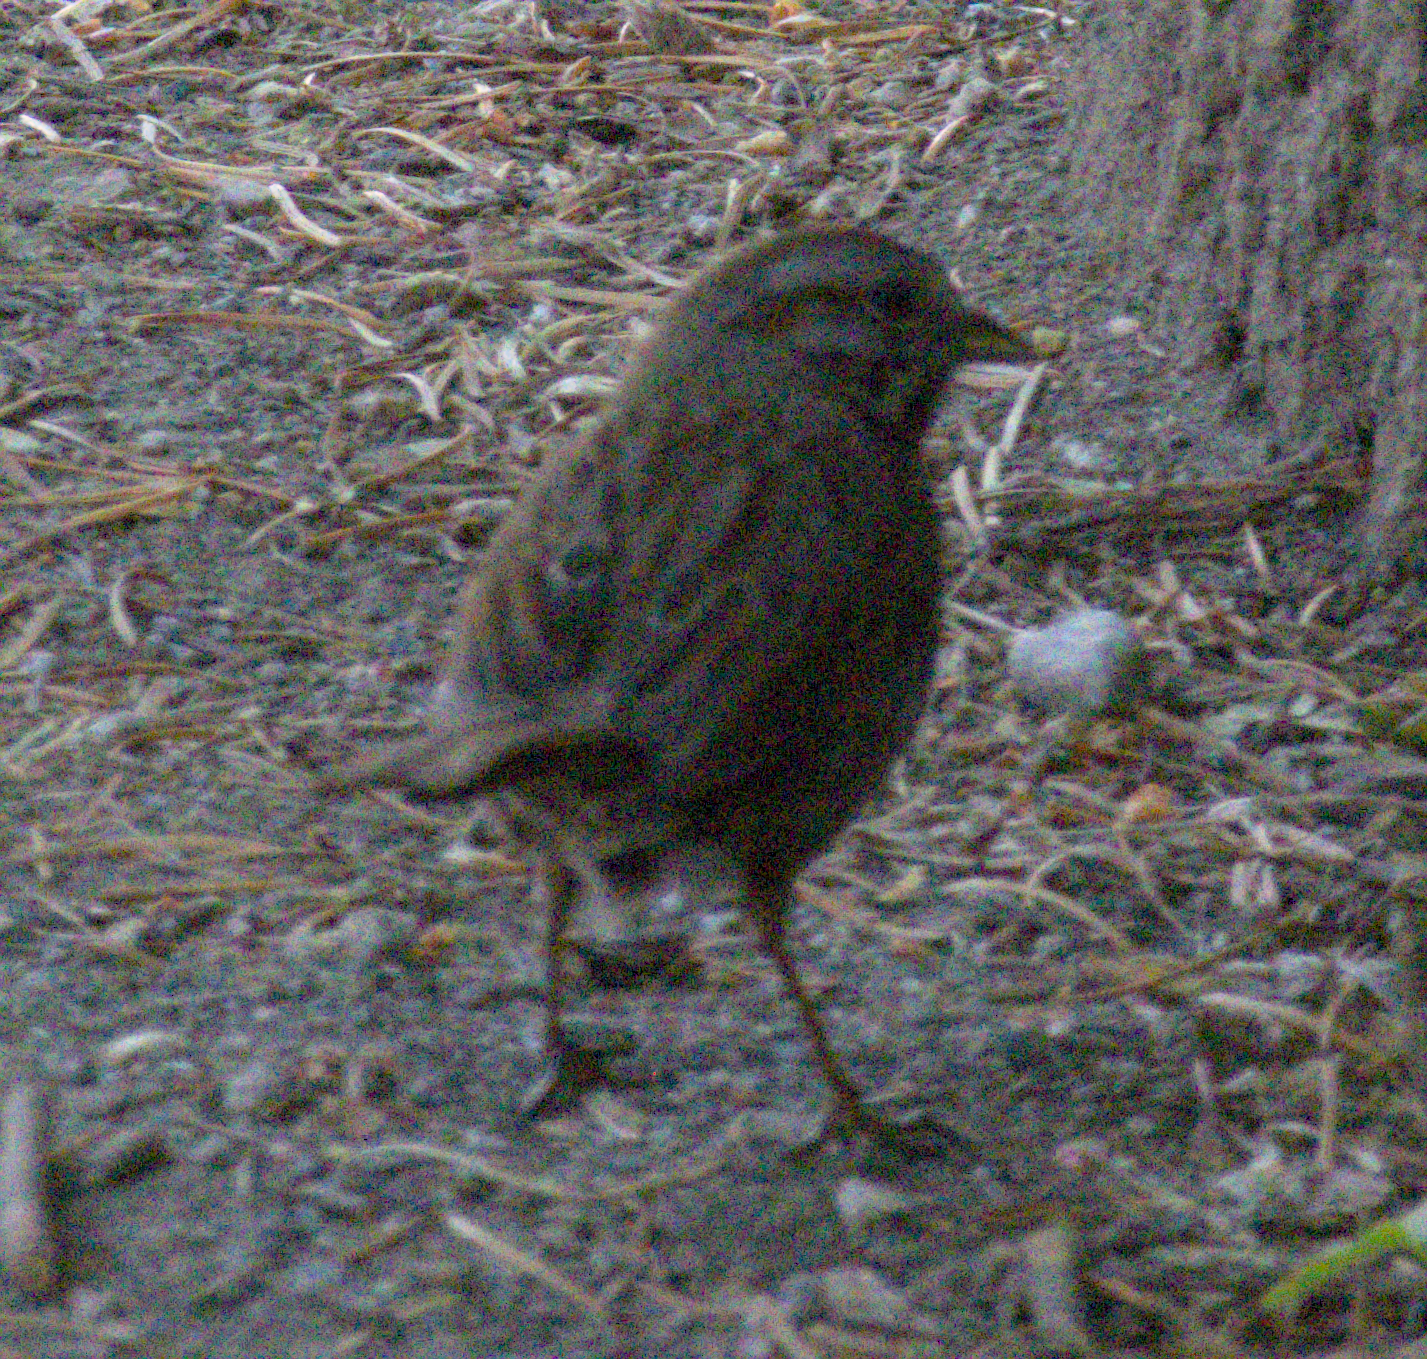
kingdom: Animalia
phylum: Chordata
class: Aves
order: Passeriformes
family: Passerellidae
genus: Melospiza
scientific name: Melospiza melodia
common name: Song sparrow
